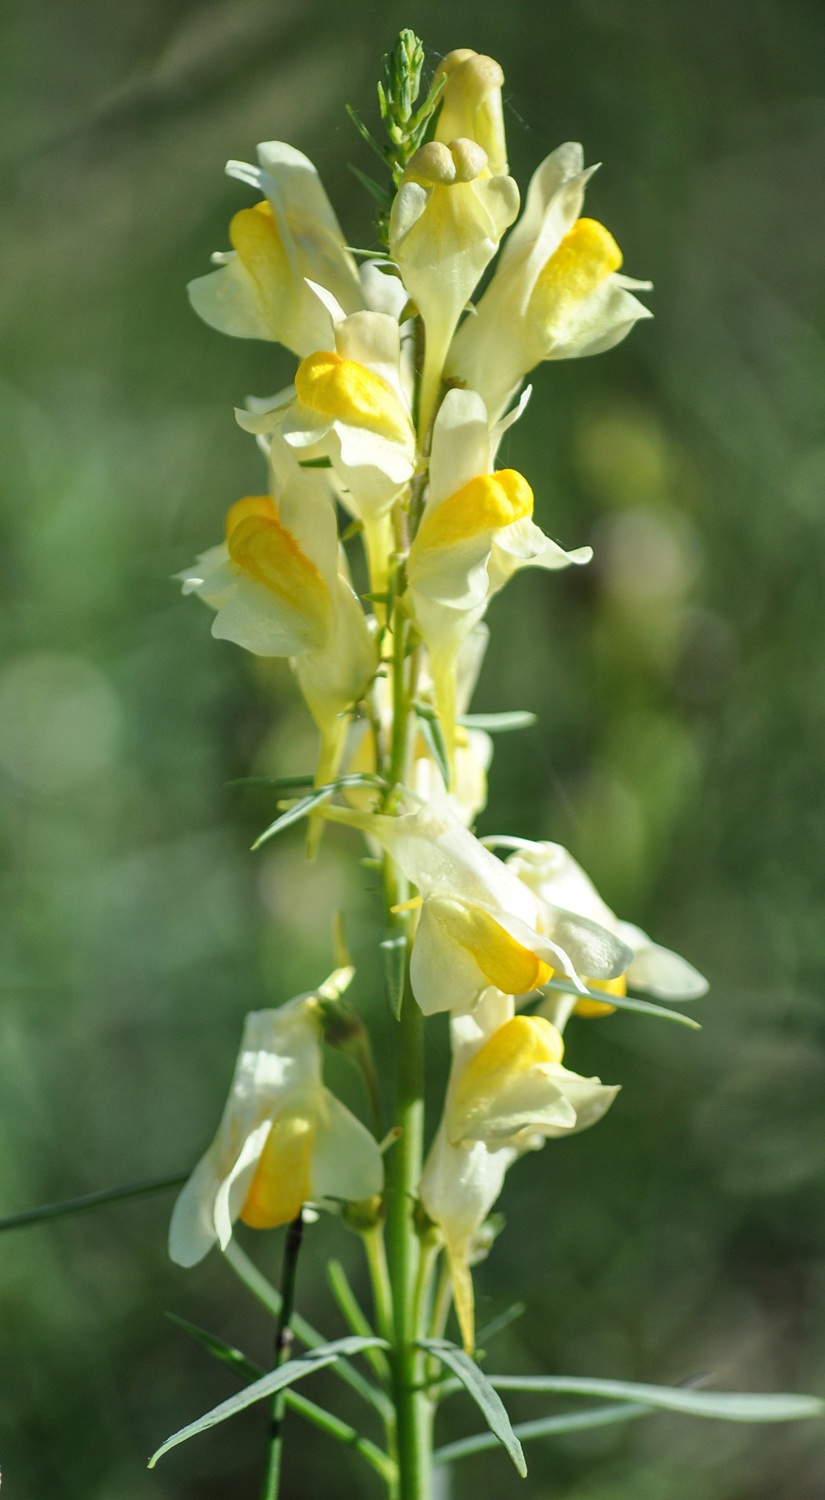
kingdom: Plantae
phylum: Tracheophyta
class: Magnoliopsida
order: Lamiales
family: Plantaginaceae
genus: Linaria
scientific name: Linaria vulgaris
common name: Butter and eggs
